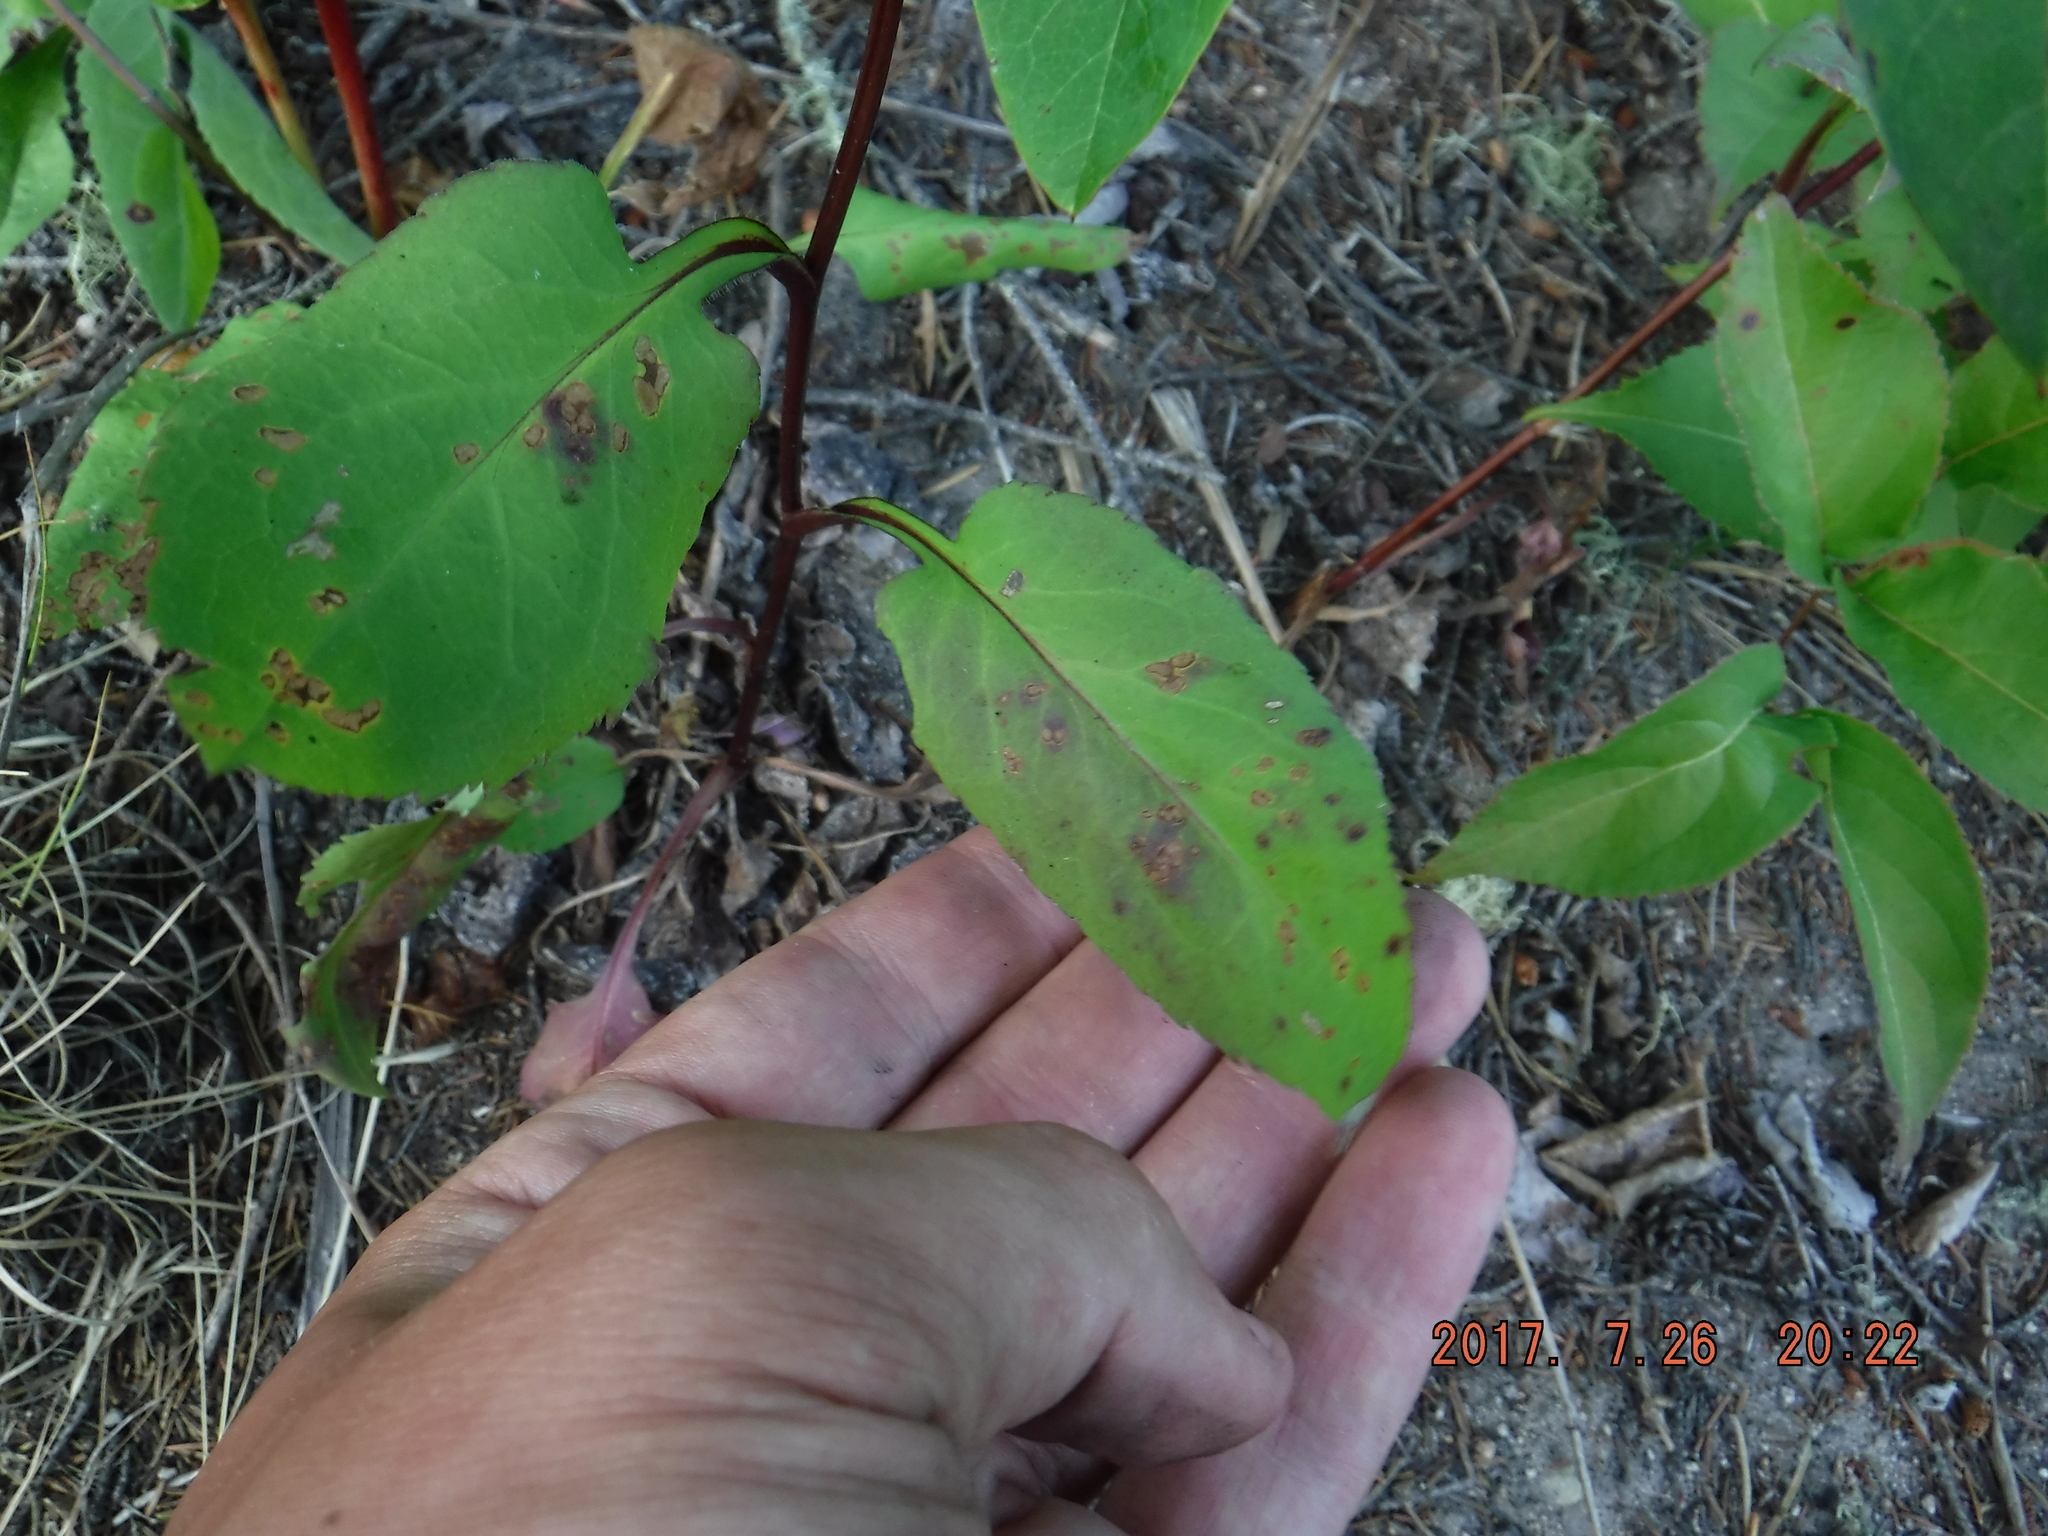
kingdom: Plantae
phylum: Tracheophyta
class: Magnoliopsida
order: Asterales
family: Asteraceae
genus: Symphyotrichum
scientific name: Symphyotrichum ciliolatum
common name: Fringed blue aster
